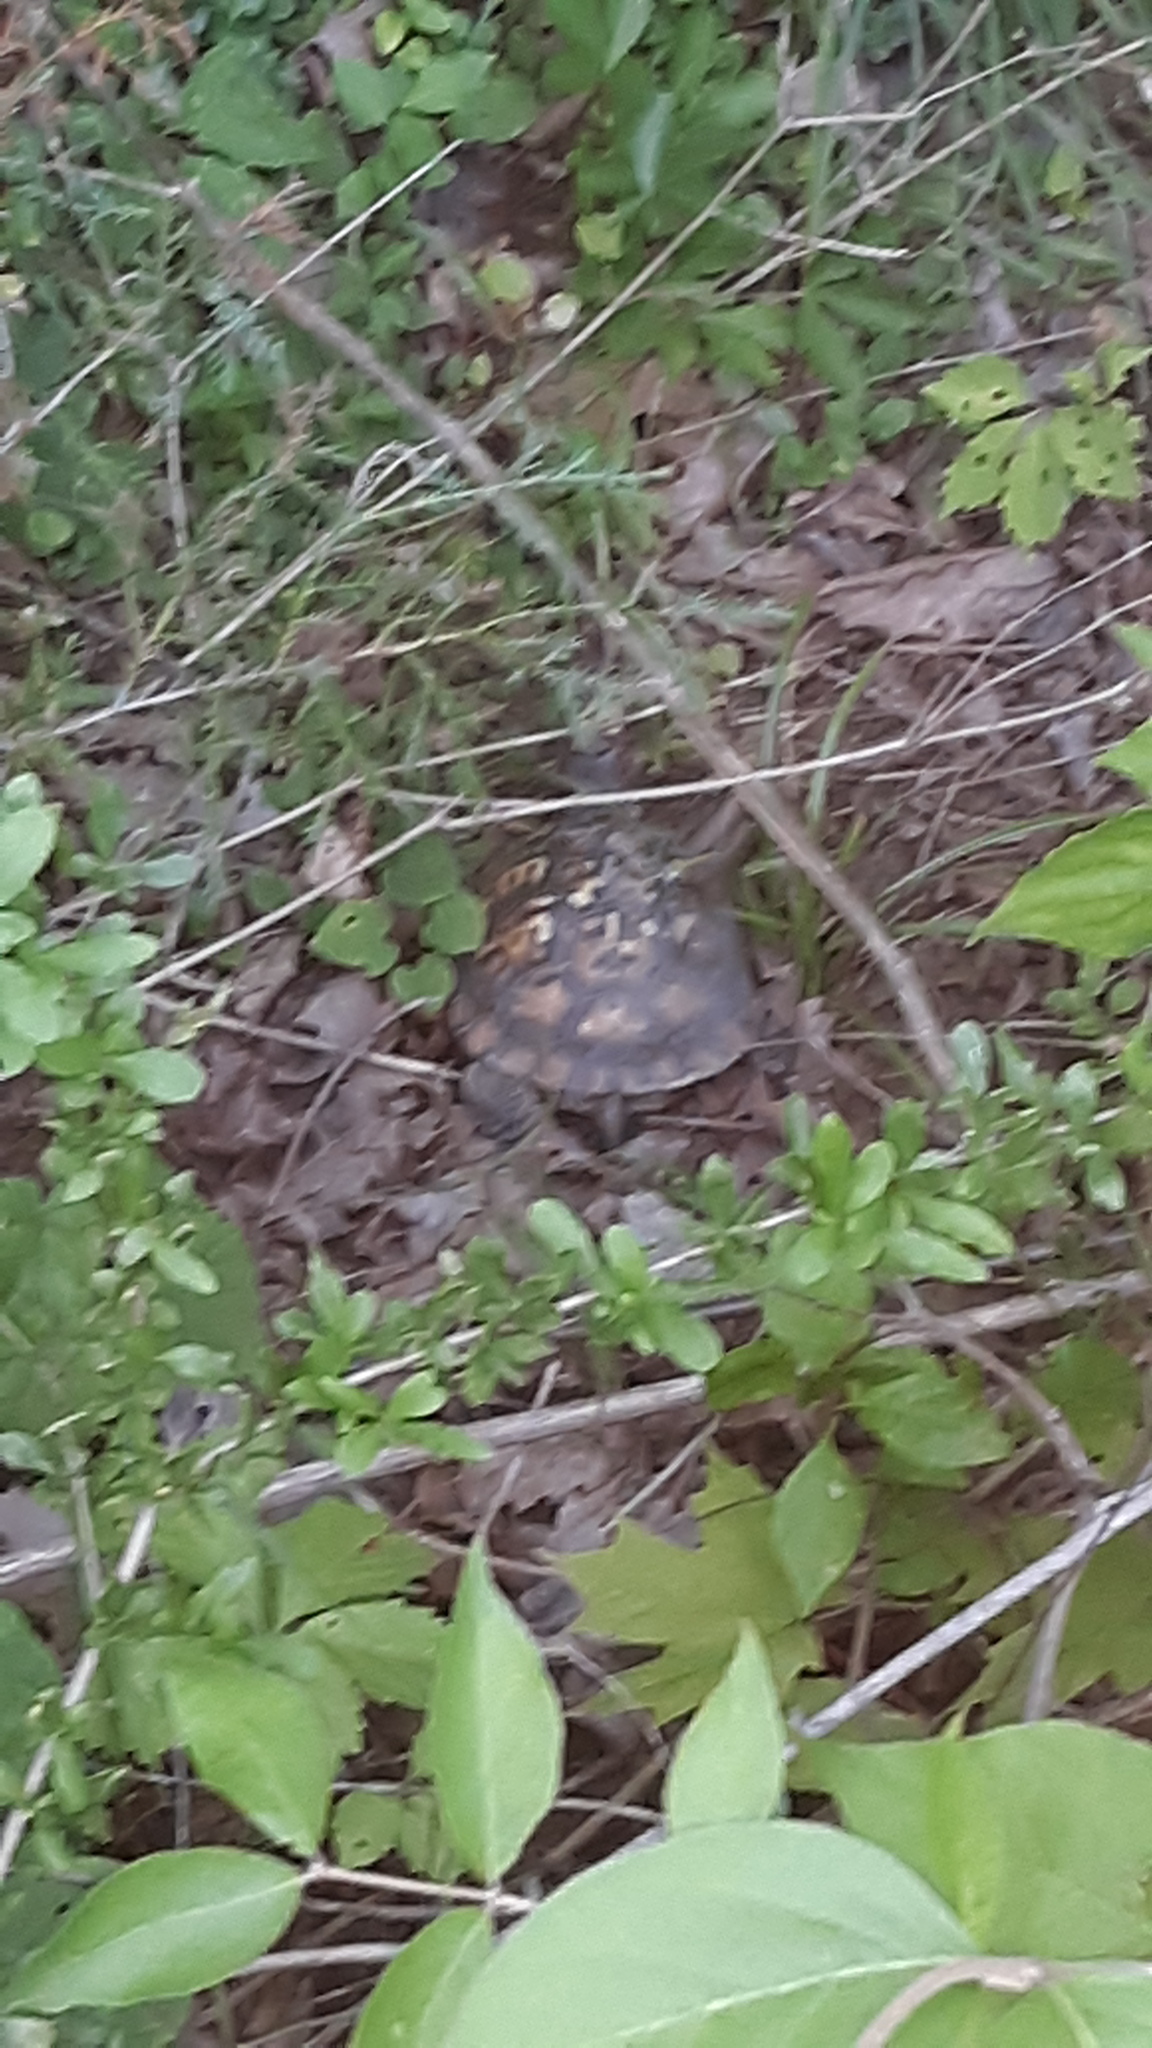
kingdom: Animalia
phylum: Chordata
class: Testudines
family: Emydidae
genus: Terrapene
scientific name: Terrapene carolina
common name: Common box turtle
